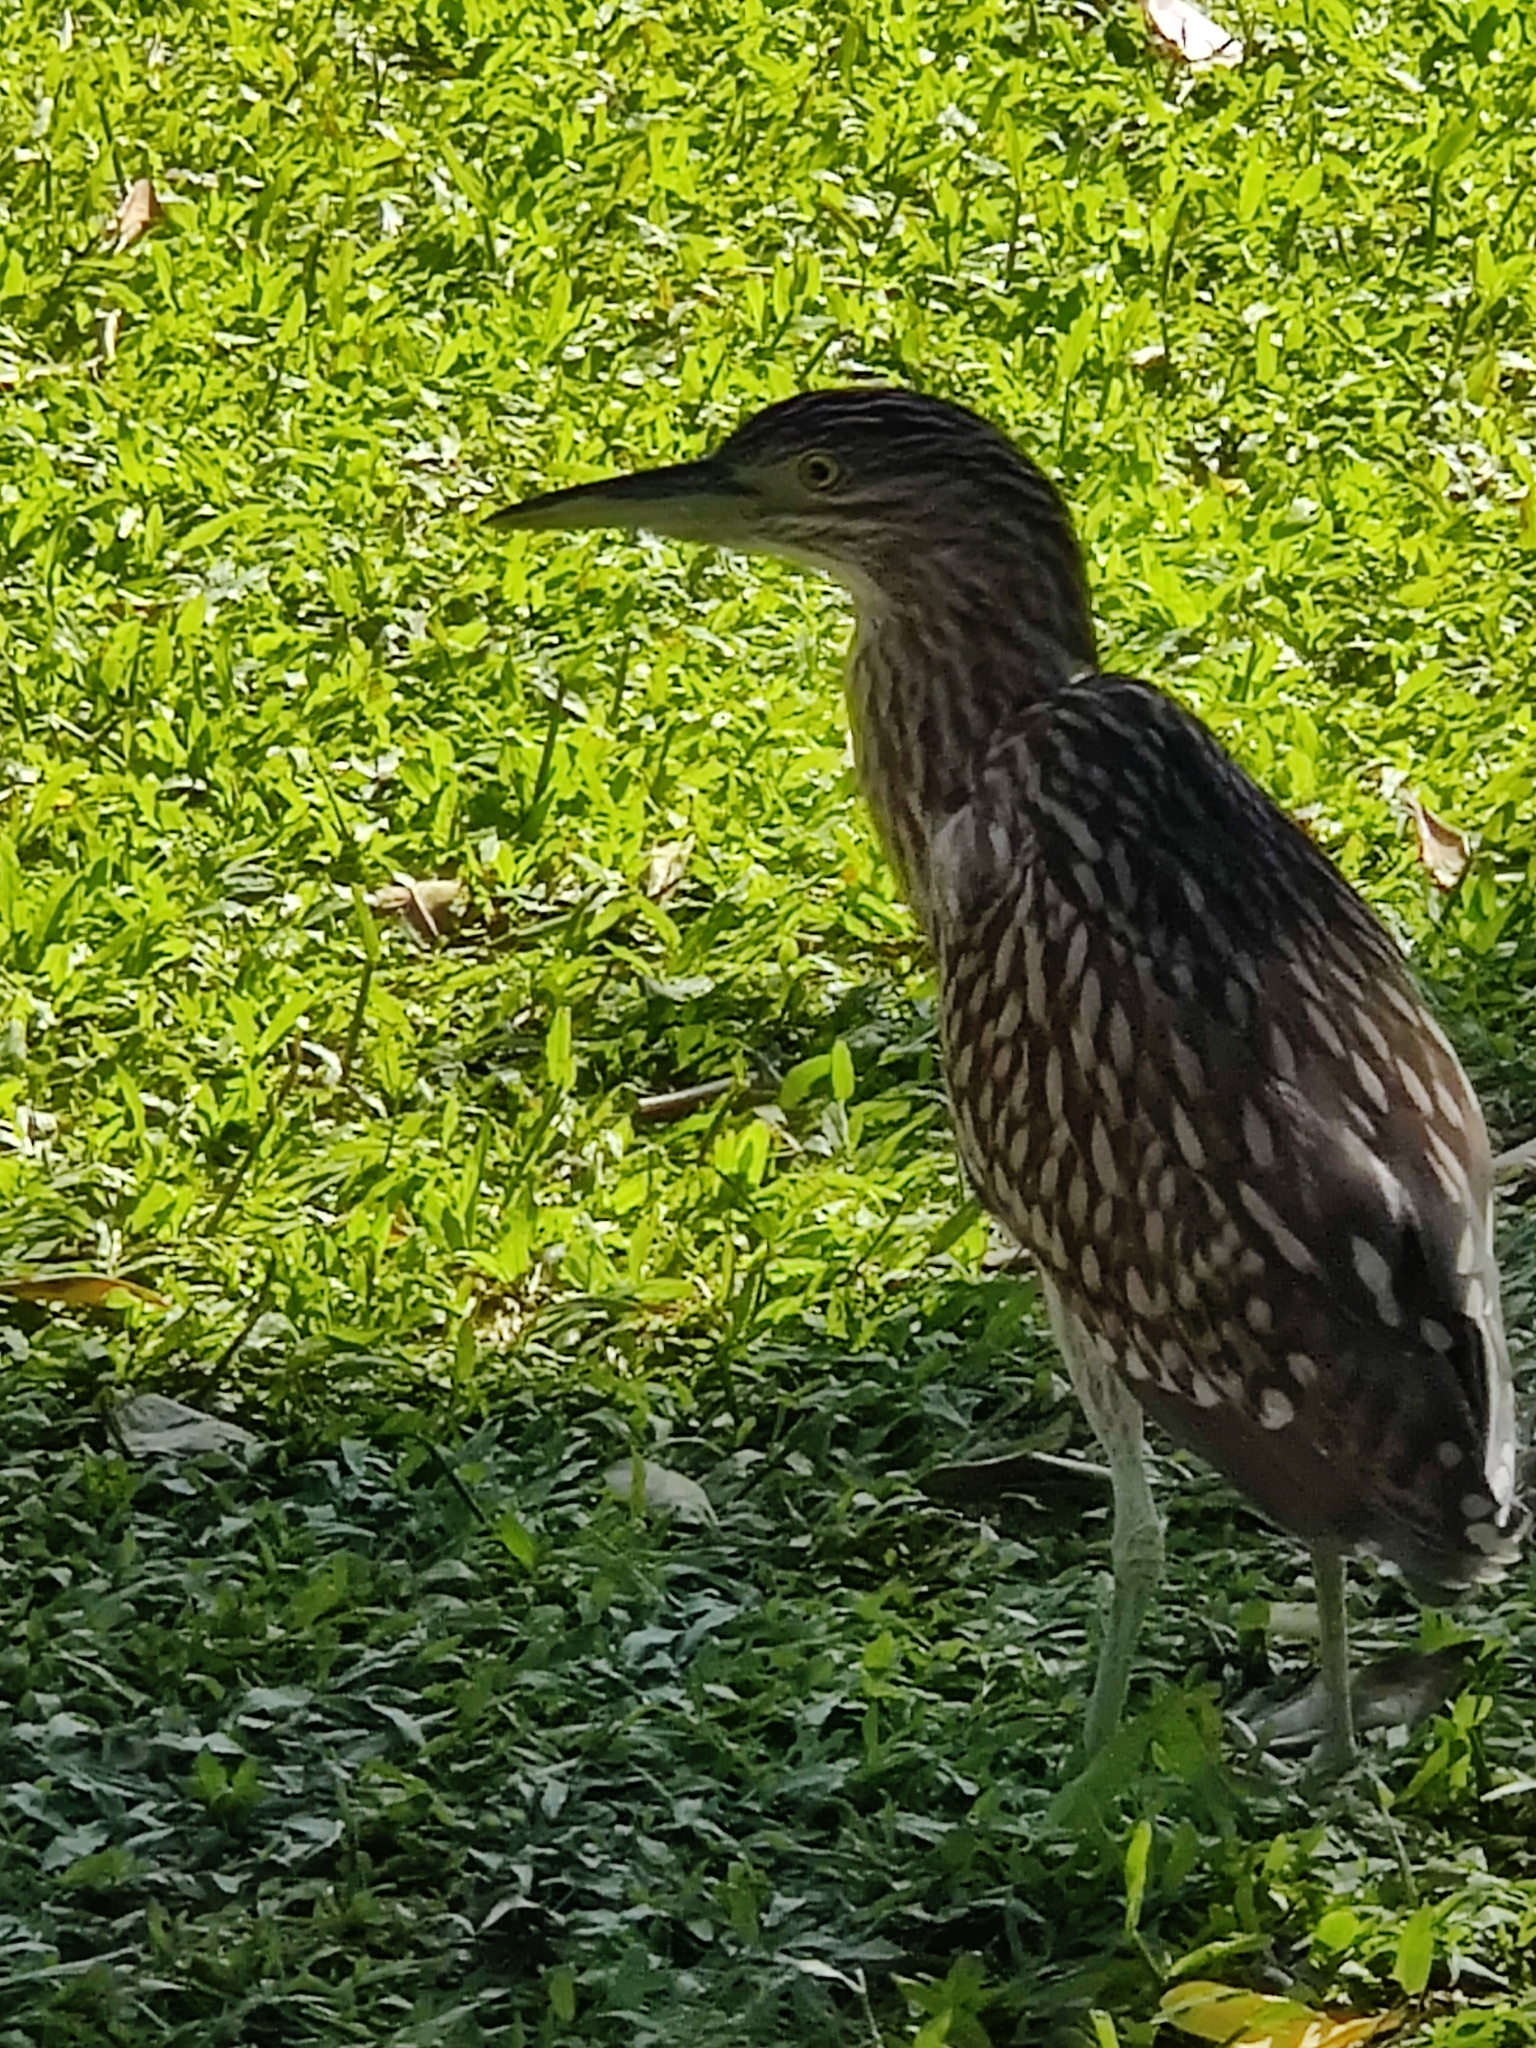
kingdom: Animalia
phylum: Chordata
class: Aves
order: Pelecaniformes
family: Ardeidae
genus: Nycticorax
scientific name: Nycticorax caledonicus
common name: Rufous night-heron
